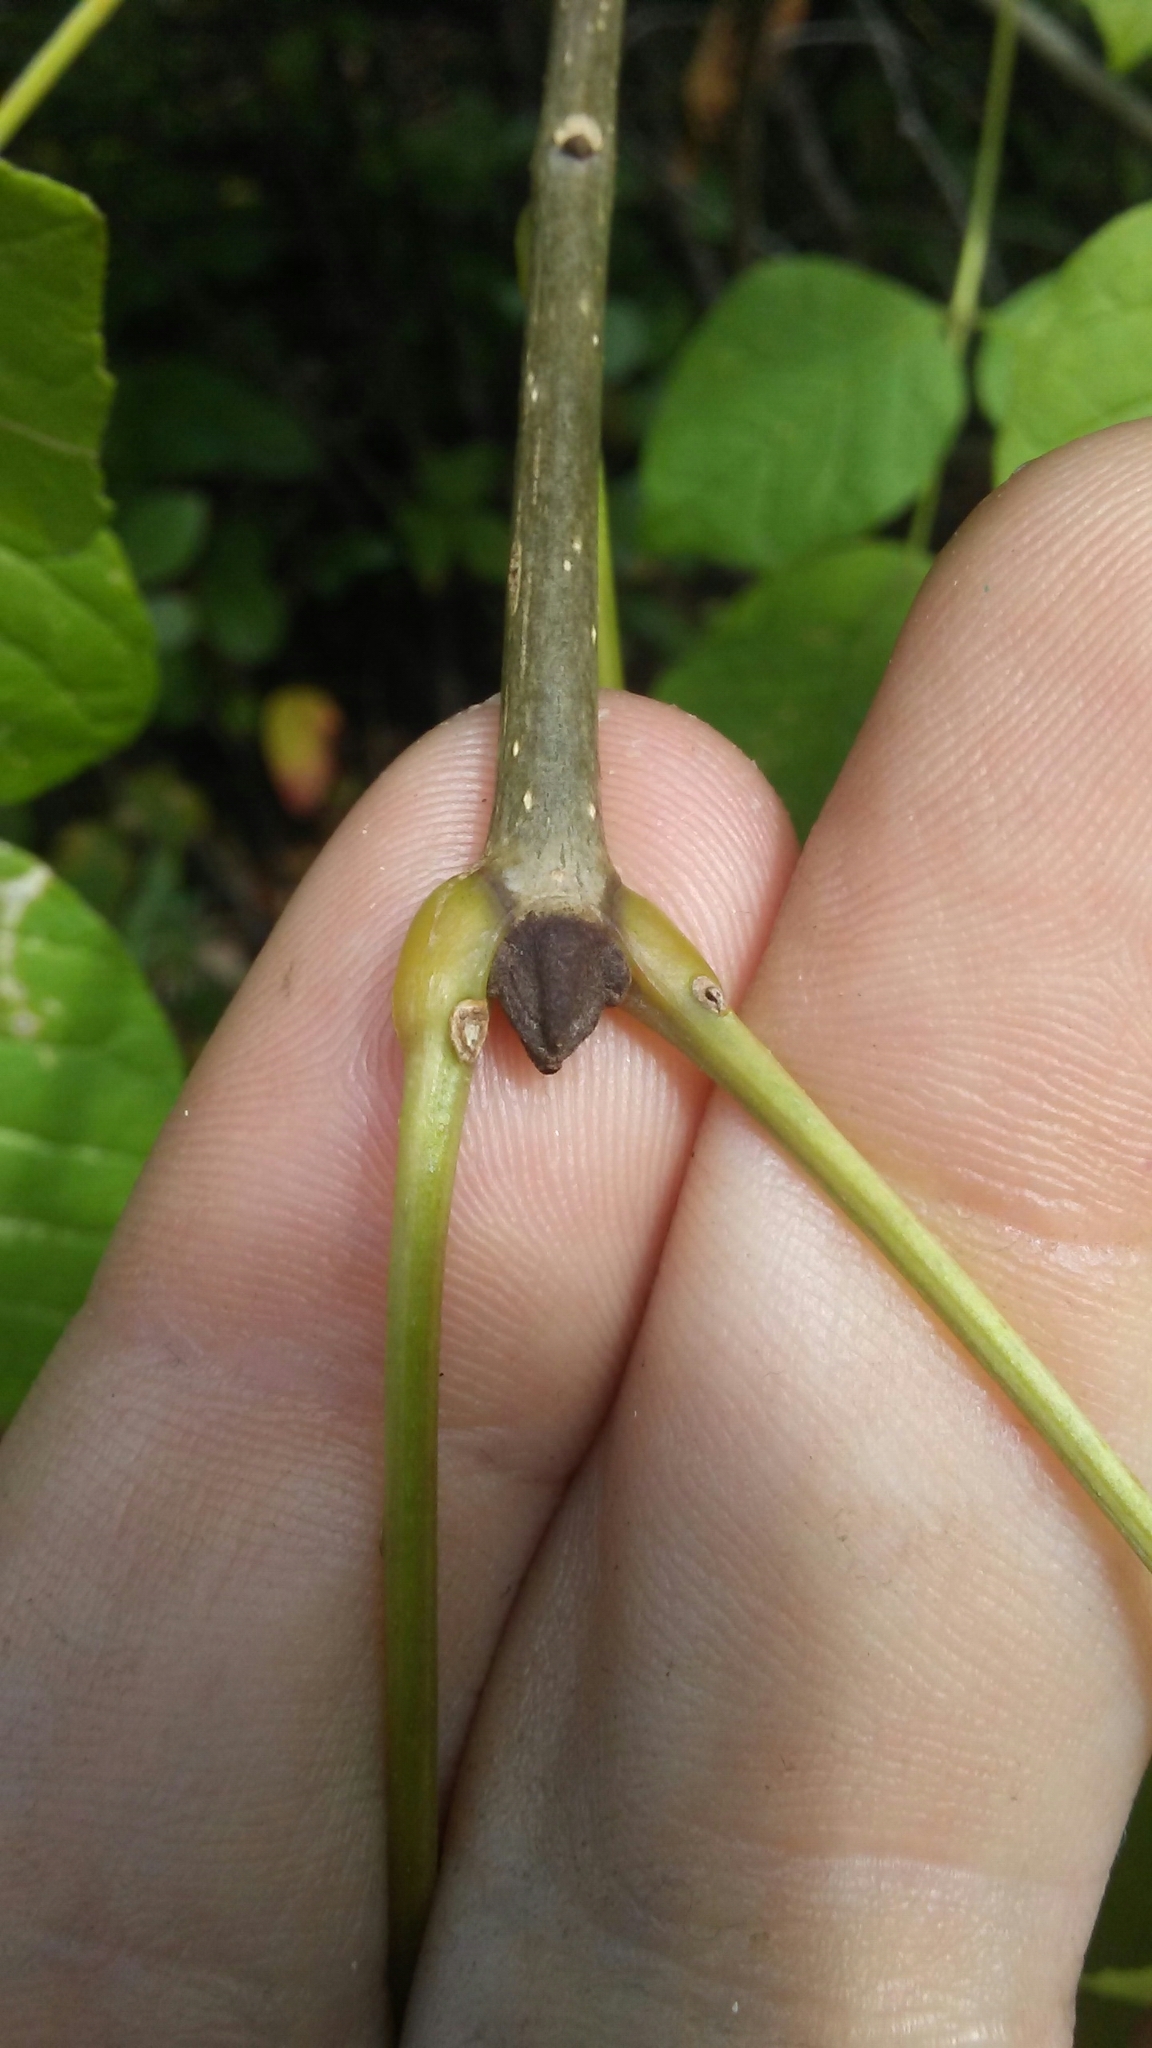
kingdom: Plantae
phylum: Tracheophyta
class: Magnoliopsida
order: Lamiales
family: Oleaceae
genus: Fraxinus
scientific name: Fraxinus pennsylvanica
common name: Green ash
